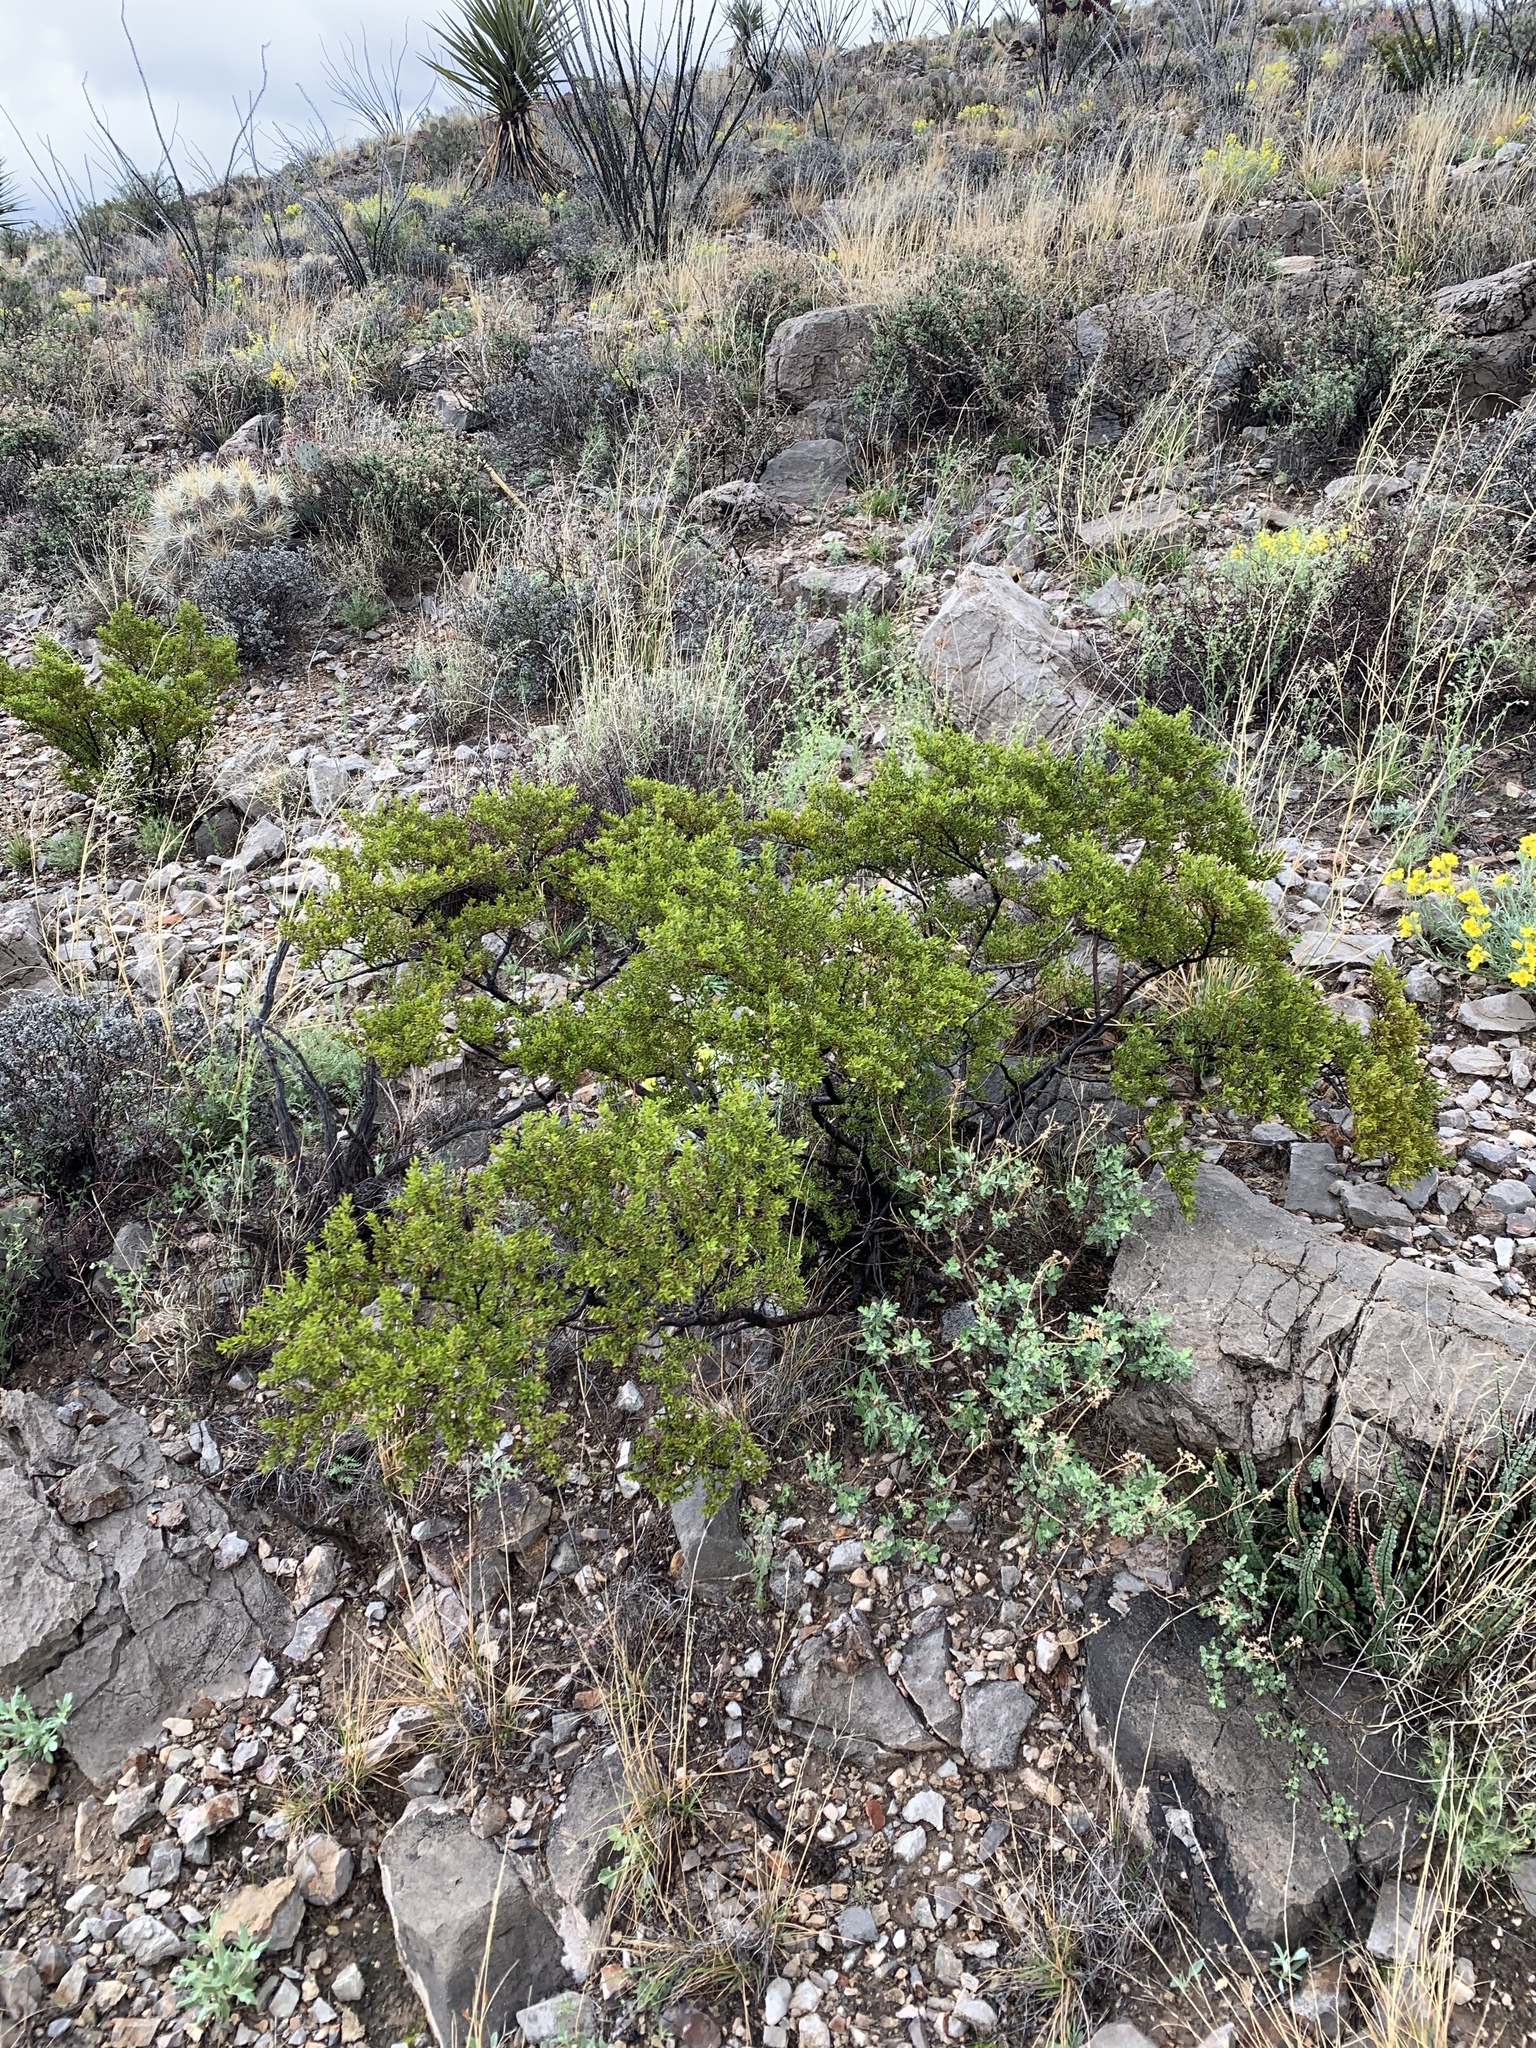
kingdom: Plantae
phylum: Tracheophyta
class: Magnoliopsida
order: Zygophyllales
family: Zygophyllaceae
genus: Larrea
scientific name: Larrea tridentata
